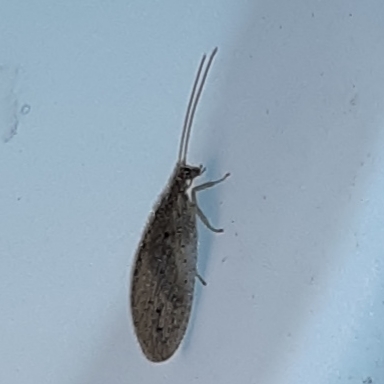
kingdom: Animalia
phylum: Arthropoda
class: Insecta
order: Neuroptera
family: Hemerobiidae
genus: Micromus
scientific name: Micromus subanticus
